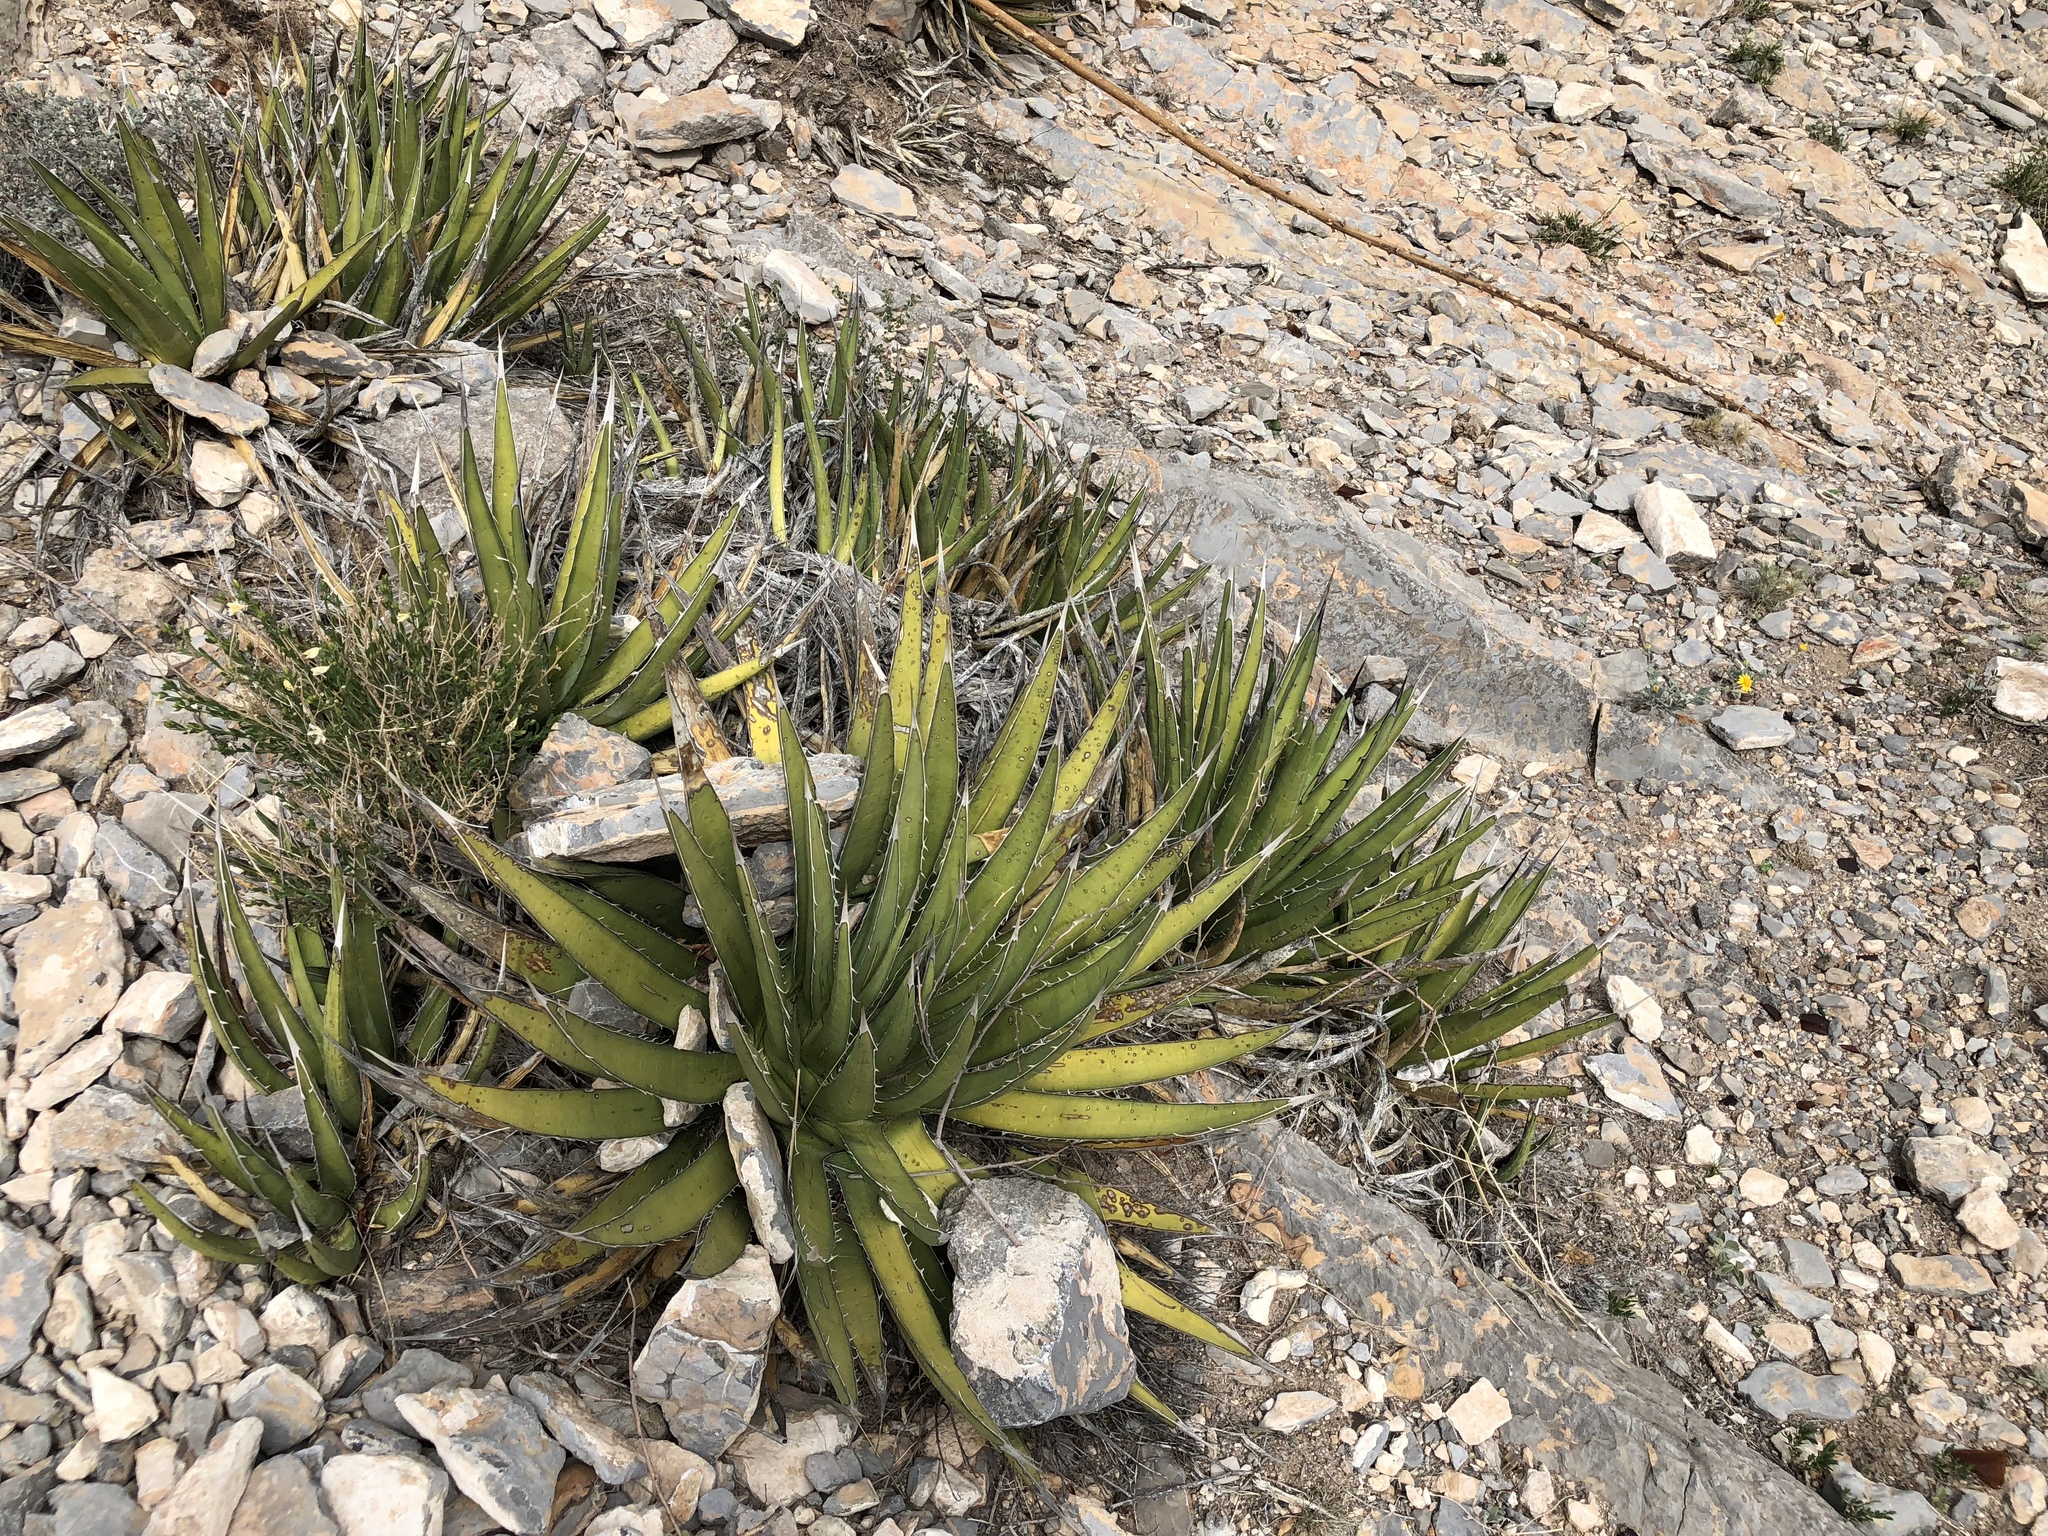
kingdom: Plantae
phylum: Tracheophyta
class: Liliopsida
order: Asparagales
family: Asparagaceae
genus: Agave
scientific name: Agave lechuguilla
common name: Lecheguilla agave
